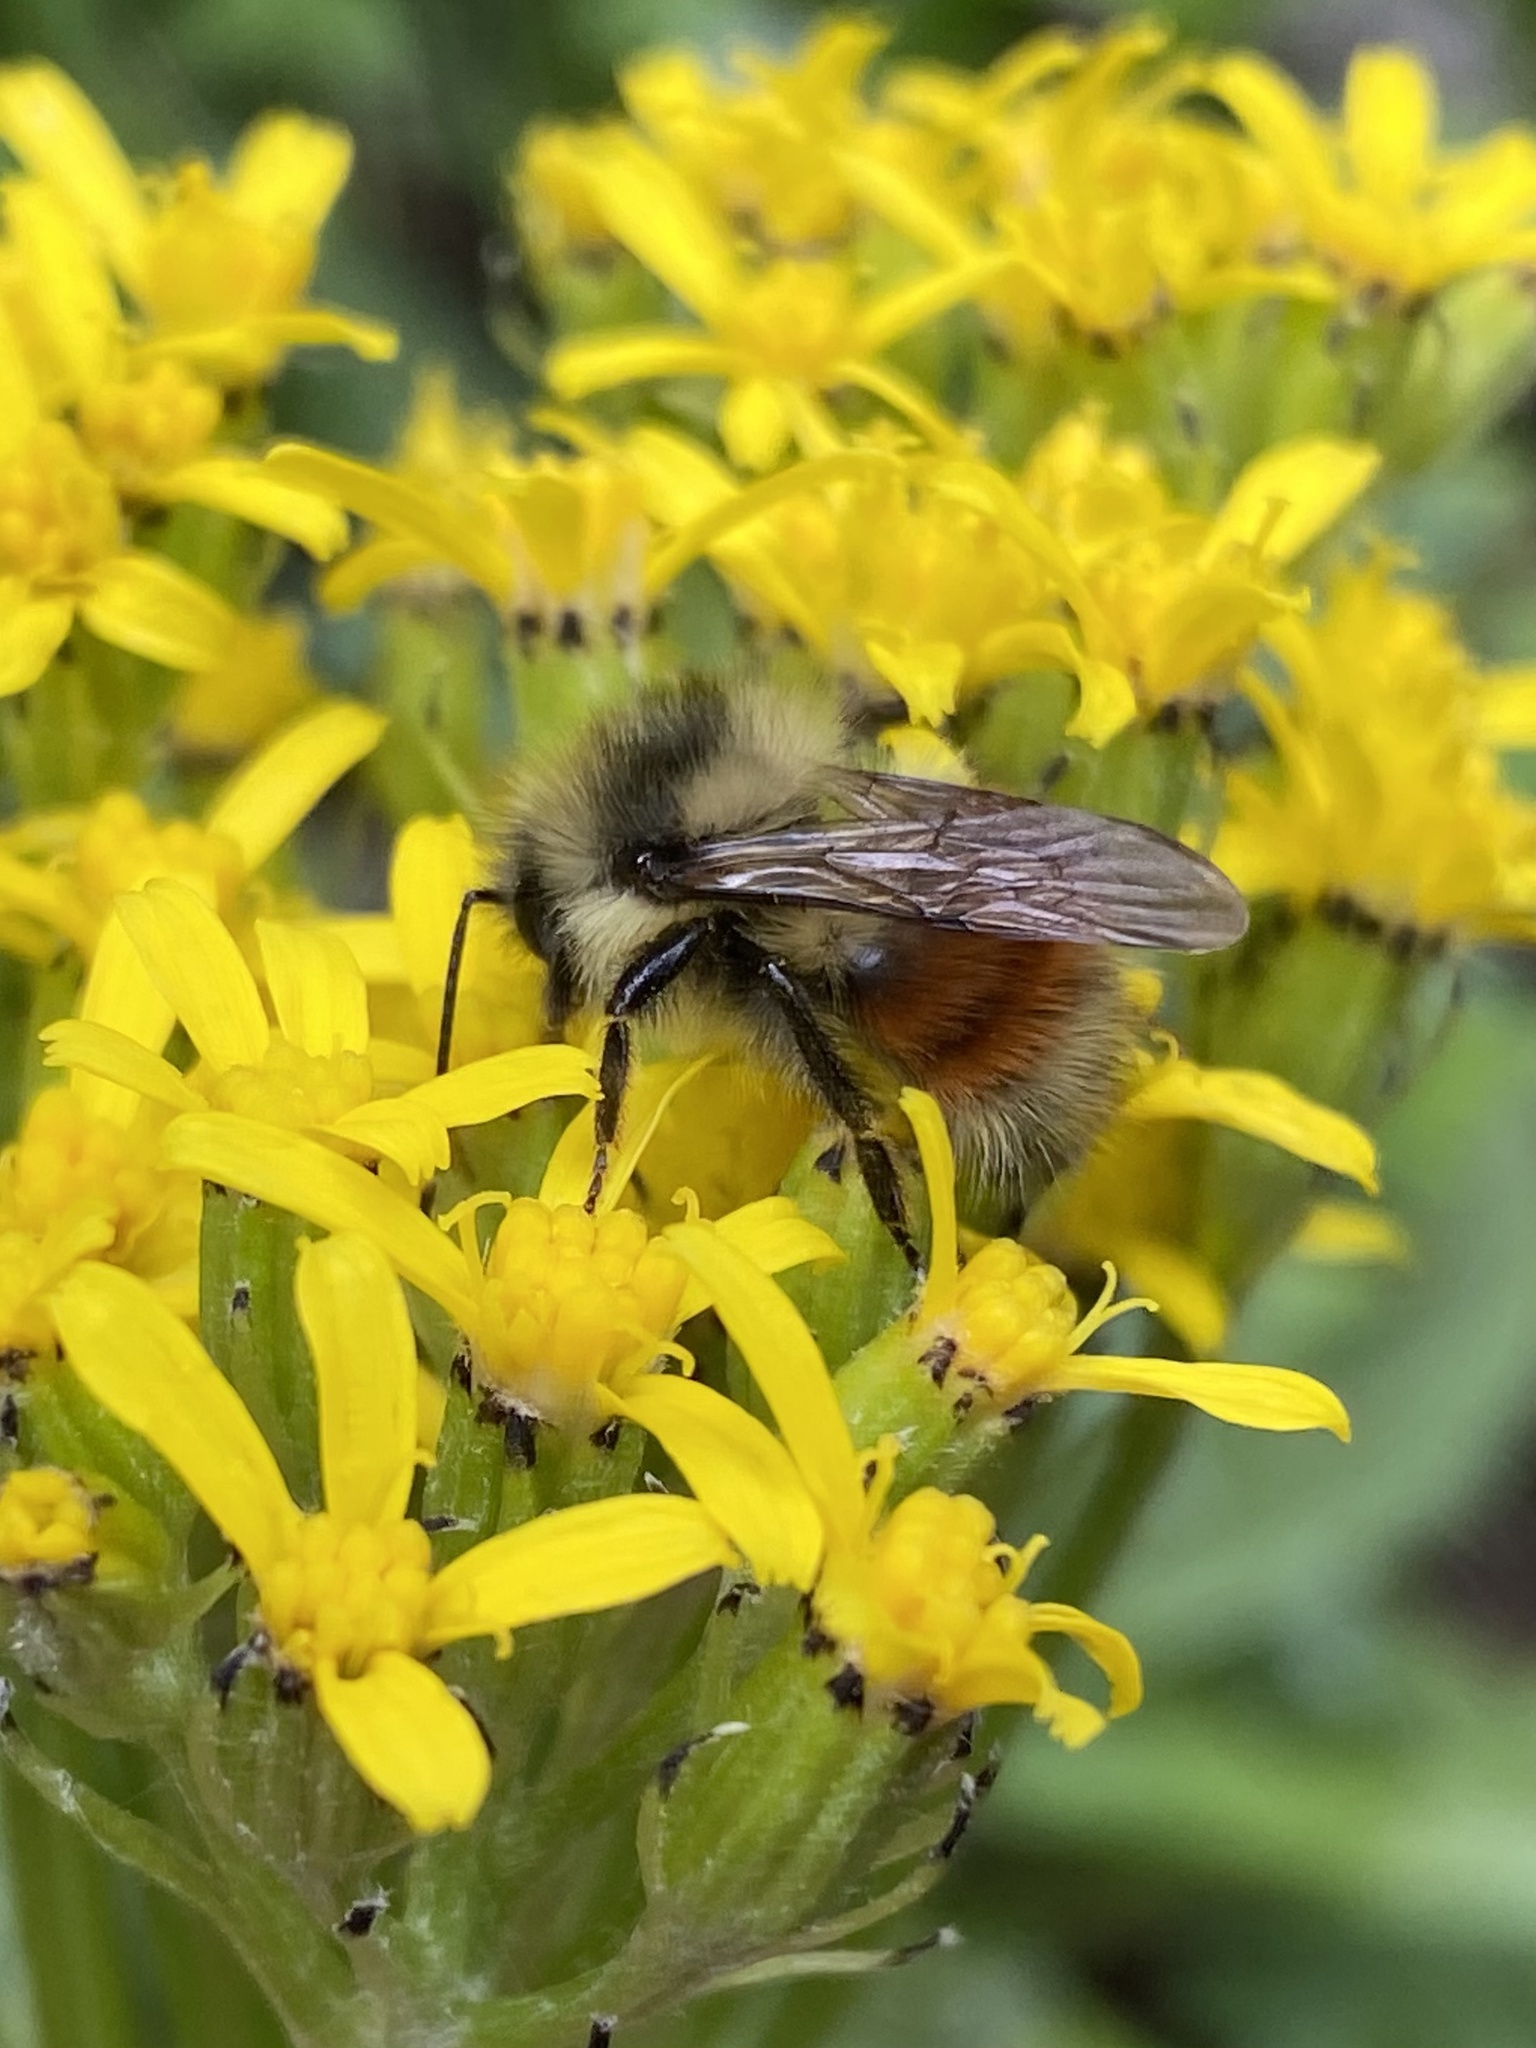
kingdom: Plantae
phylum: Tracheophyta
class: Magnoliopsida
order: Asterales
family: Asteraceae
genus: Senecio
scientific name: Senecio atratus
